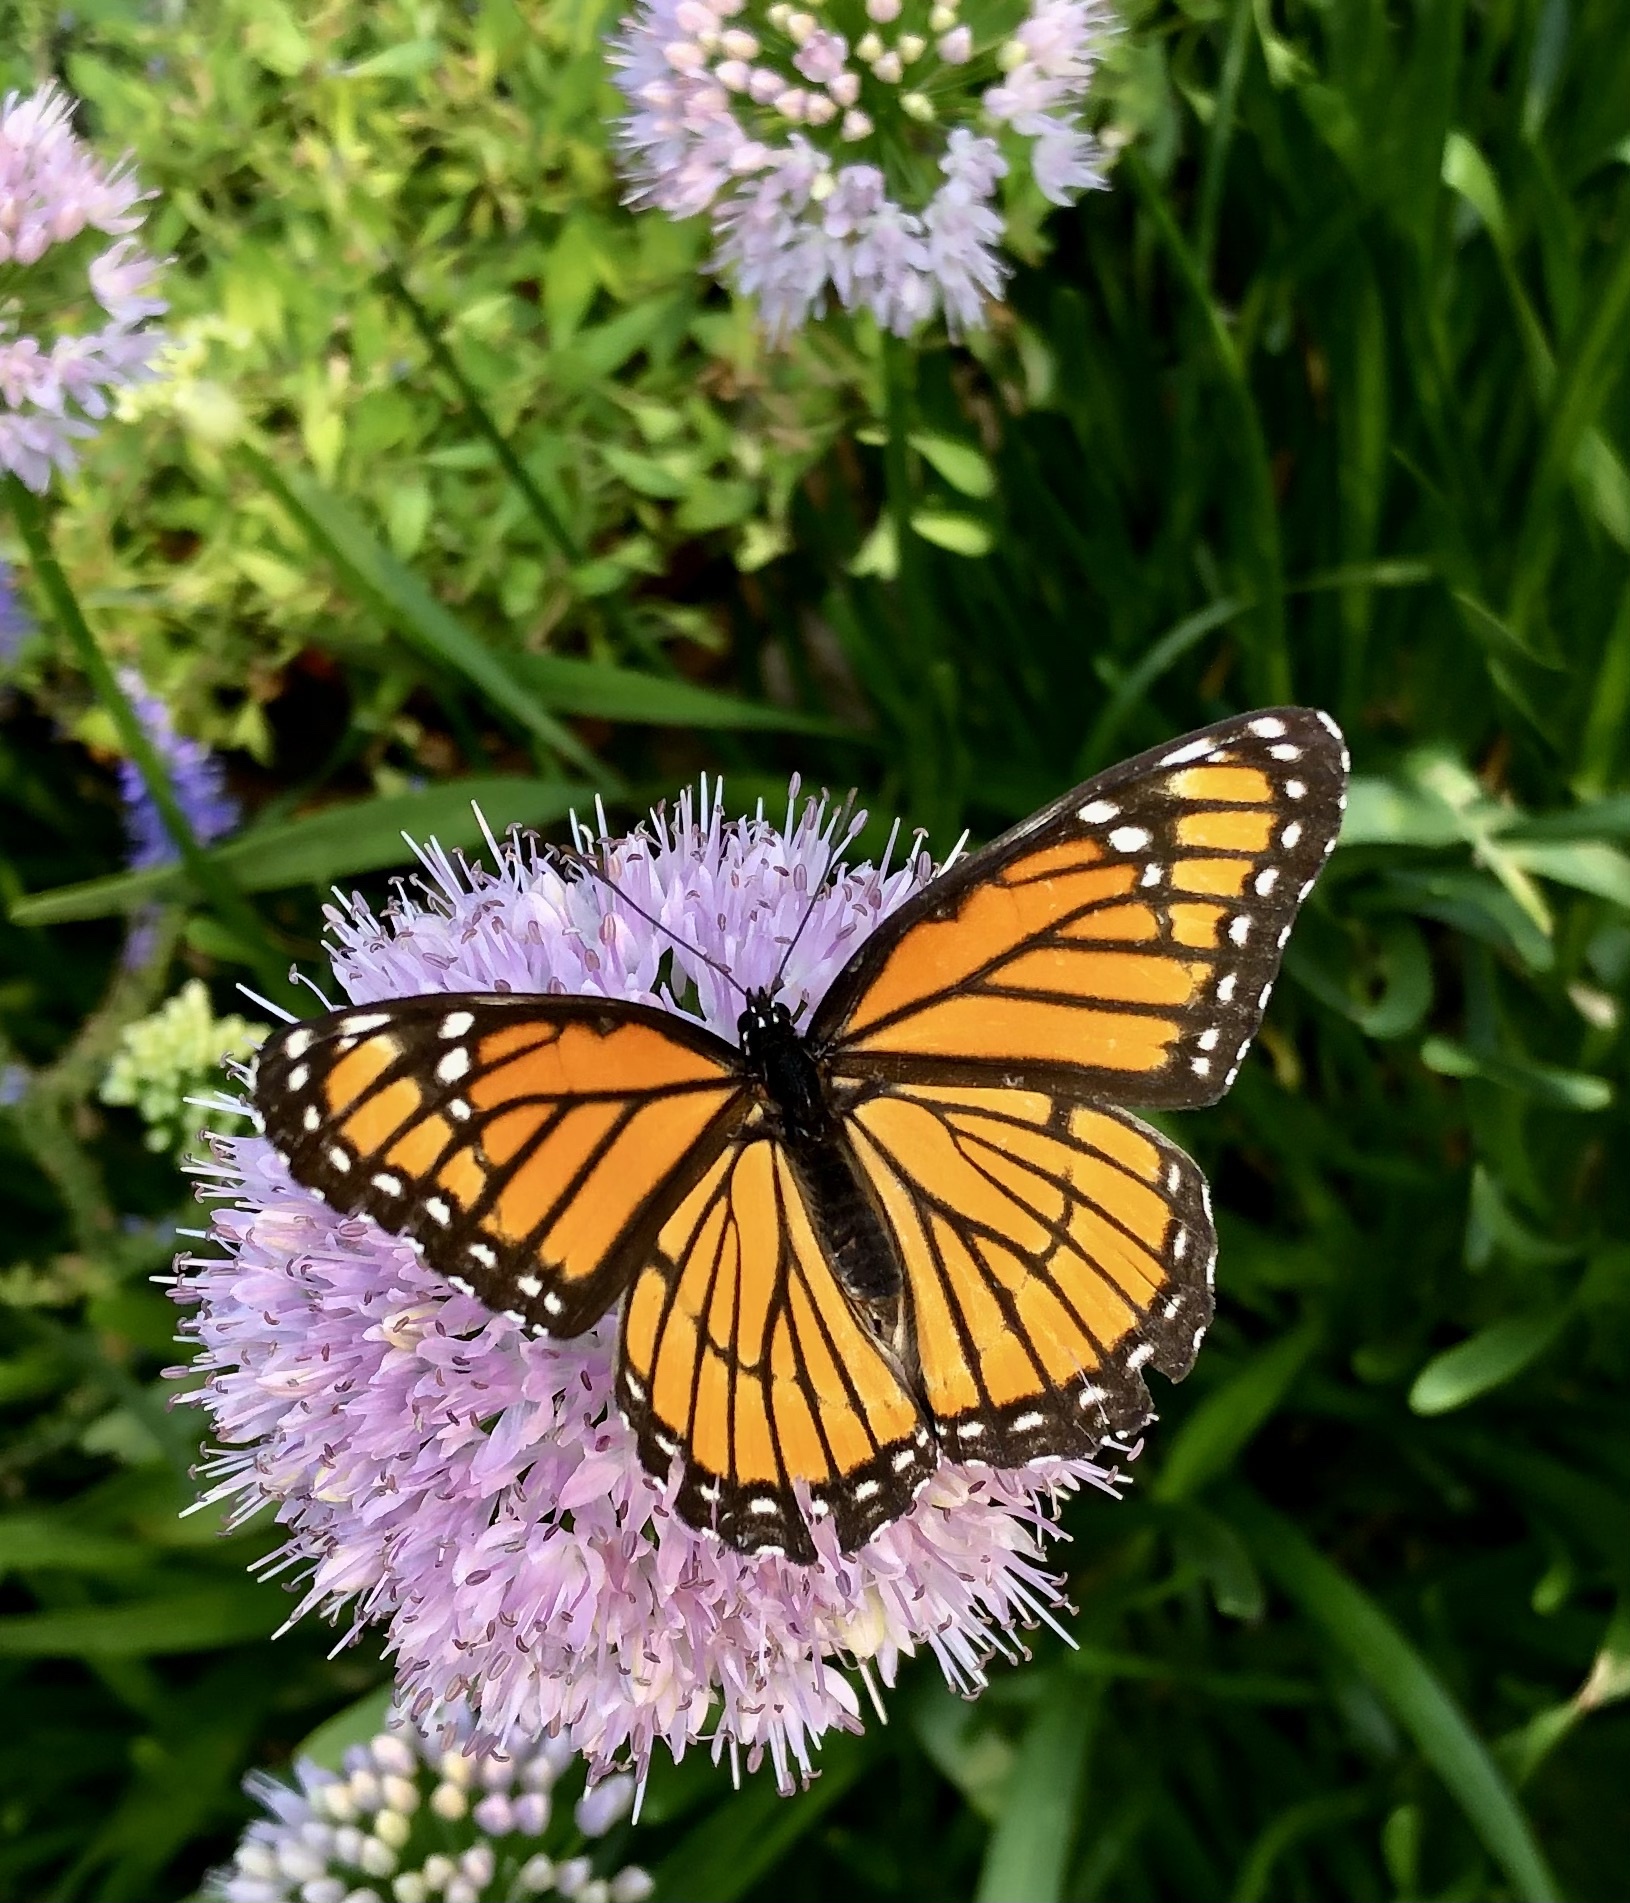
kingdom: Animalia
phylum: Arthropoda
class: Insecta
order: Lepidoptera
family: Nymphalidae
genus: Limenitis
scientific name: Limenitis archippus
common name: Viceroy
